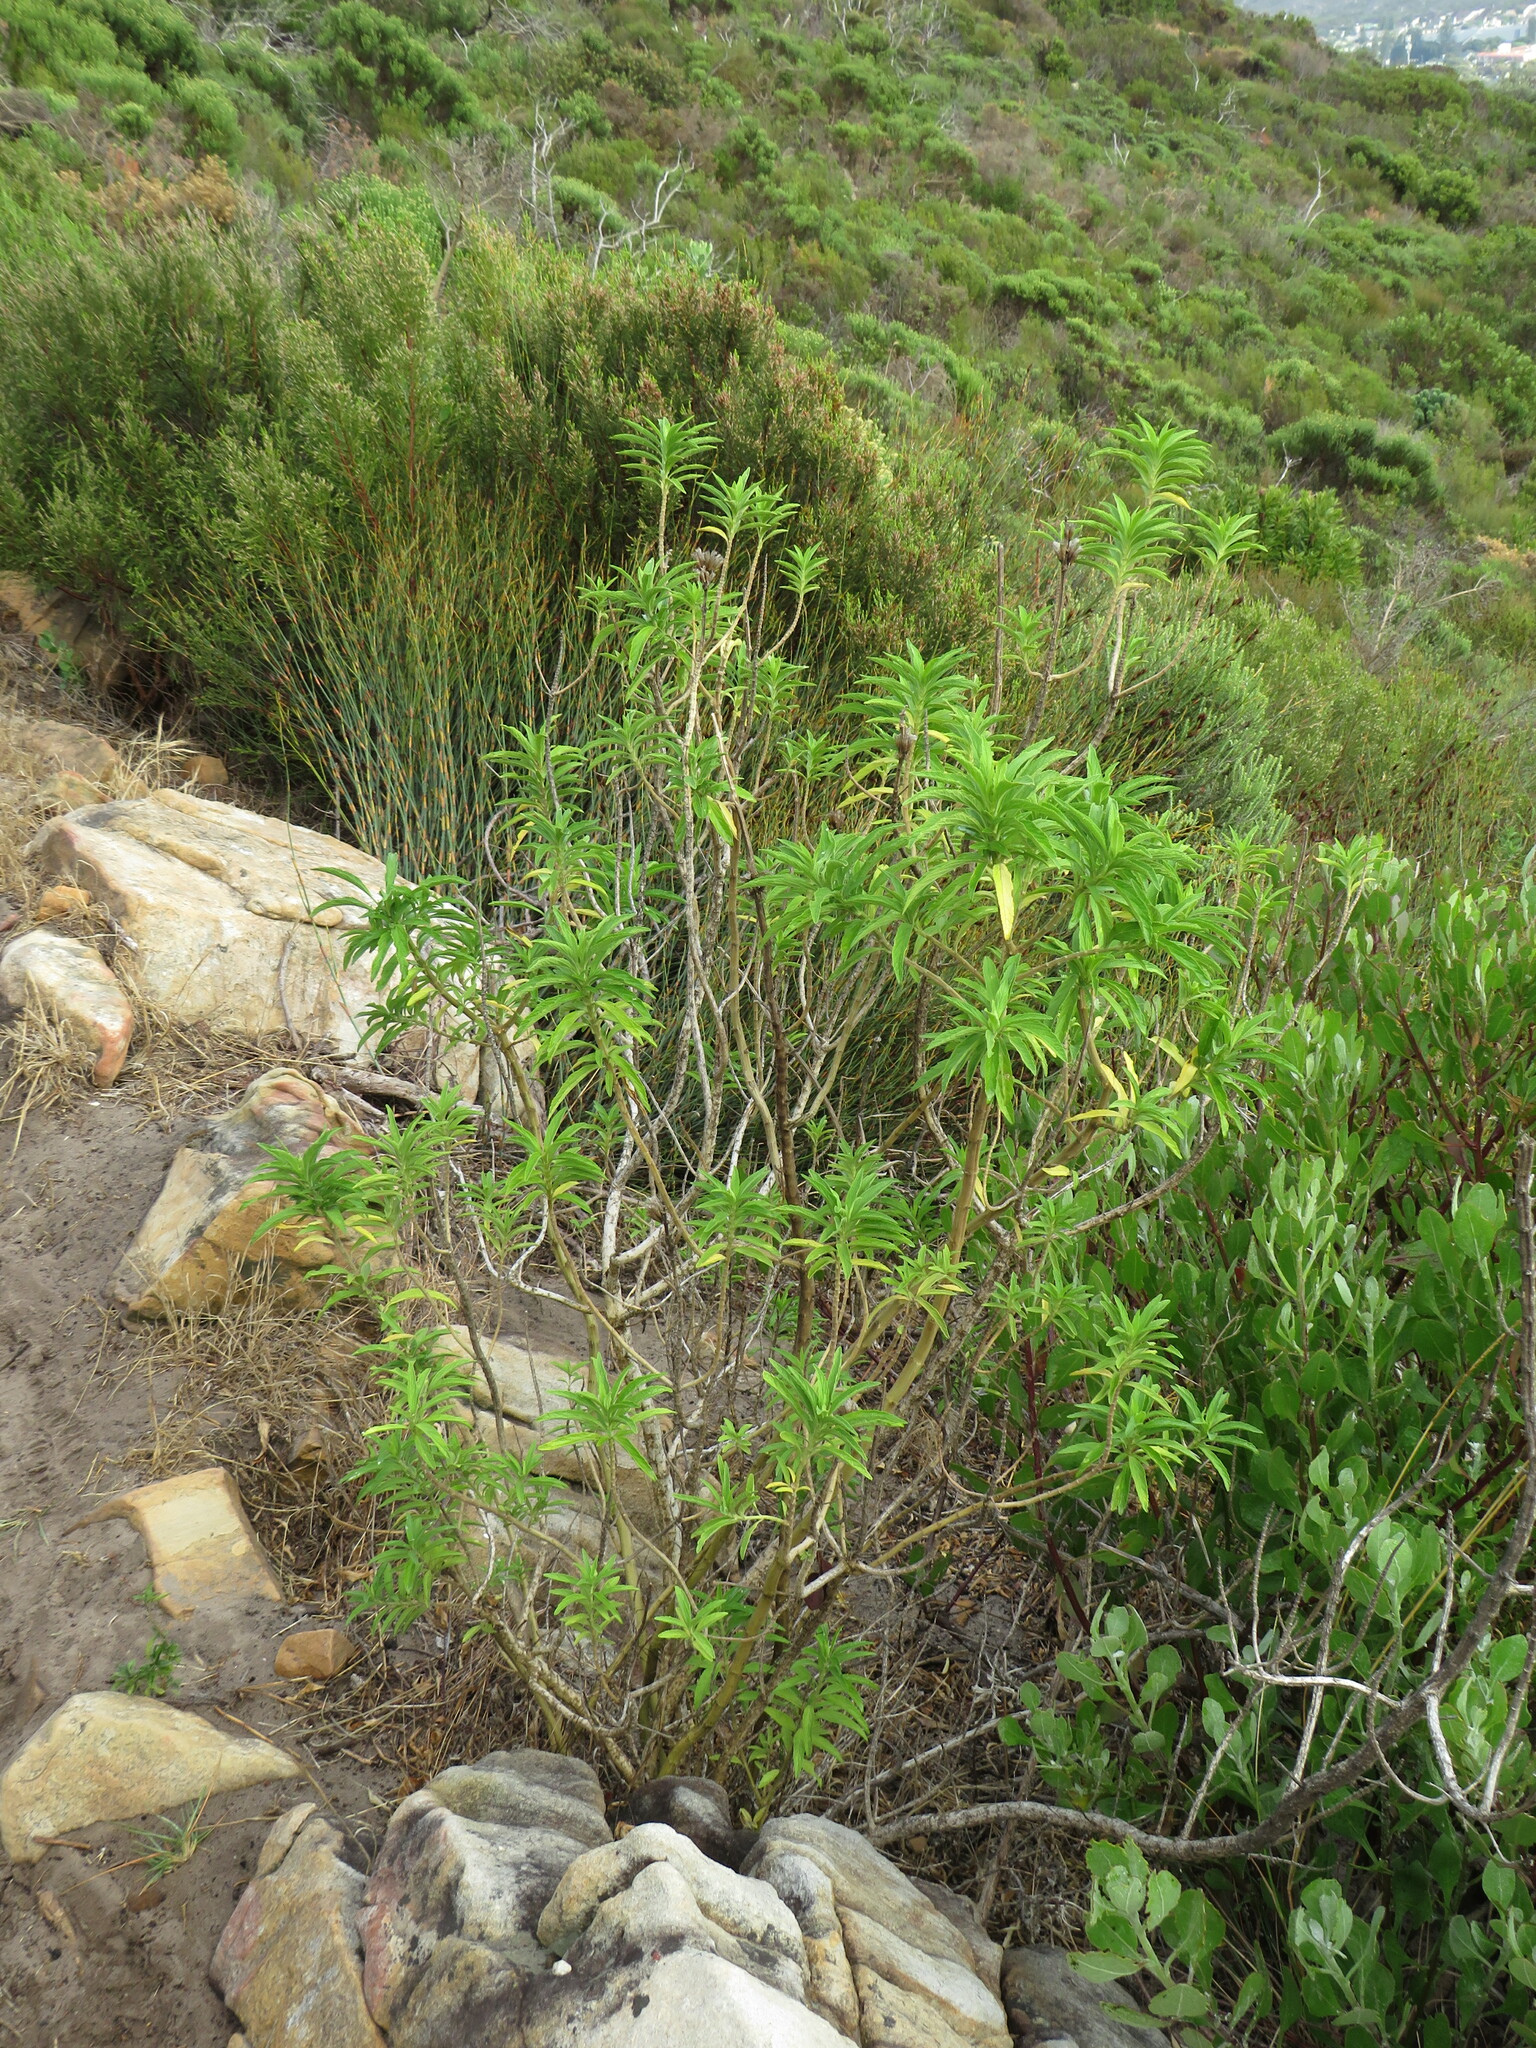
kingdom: Plantae
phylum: Tracheophyta
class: Magnoliopsida
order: Lamiales
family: Lamiaceae
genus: Leonotis
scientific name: Leonotis leonurus
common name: Lion's ear
